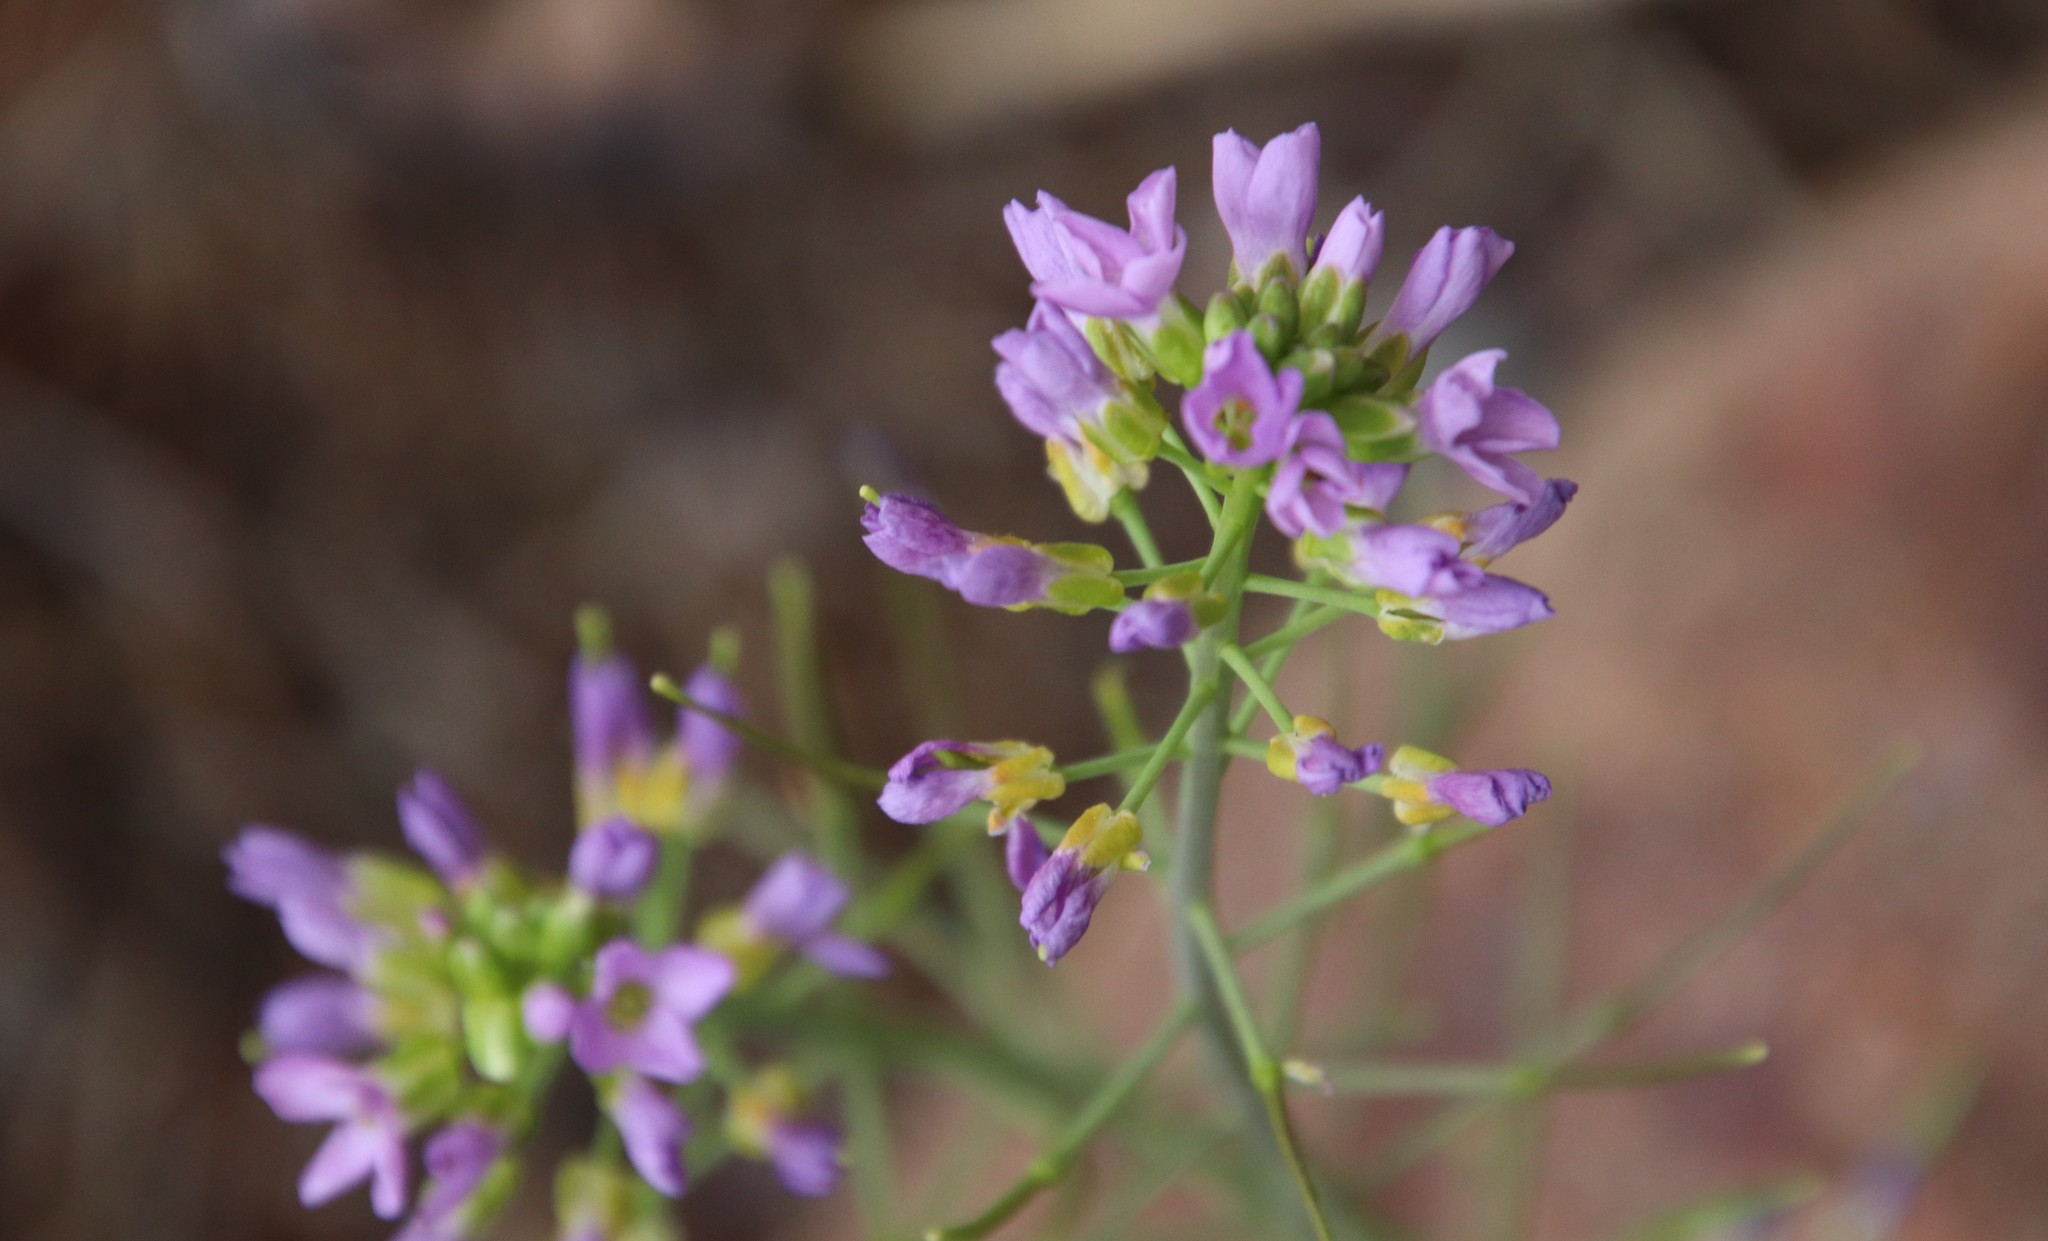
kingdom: Plantae
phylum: Tracheophyta
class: Magnoliopsida
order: Brassicales
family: Brassicaceae
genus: Phoenicaulis
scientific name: Phoenicaulis cheiranthoides
